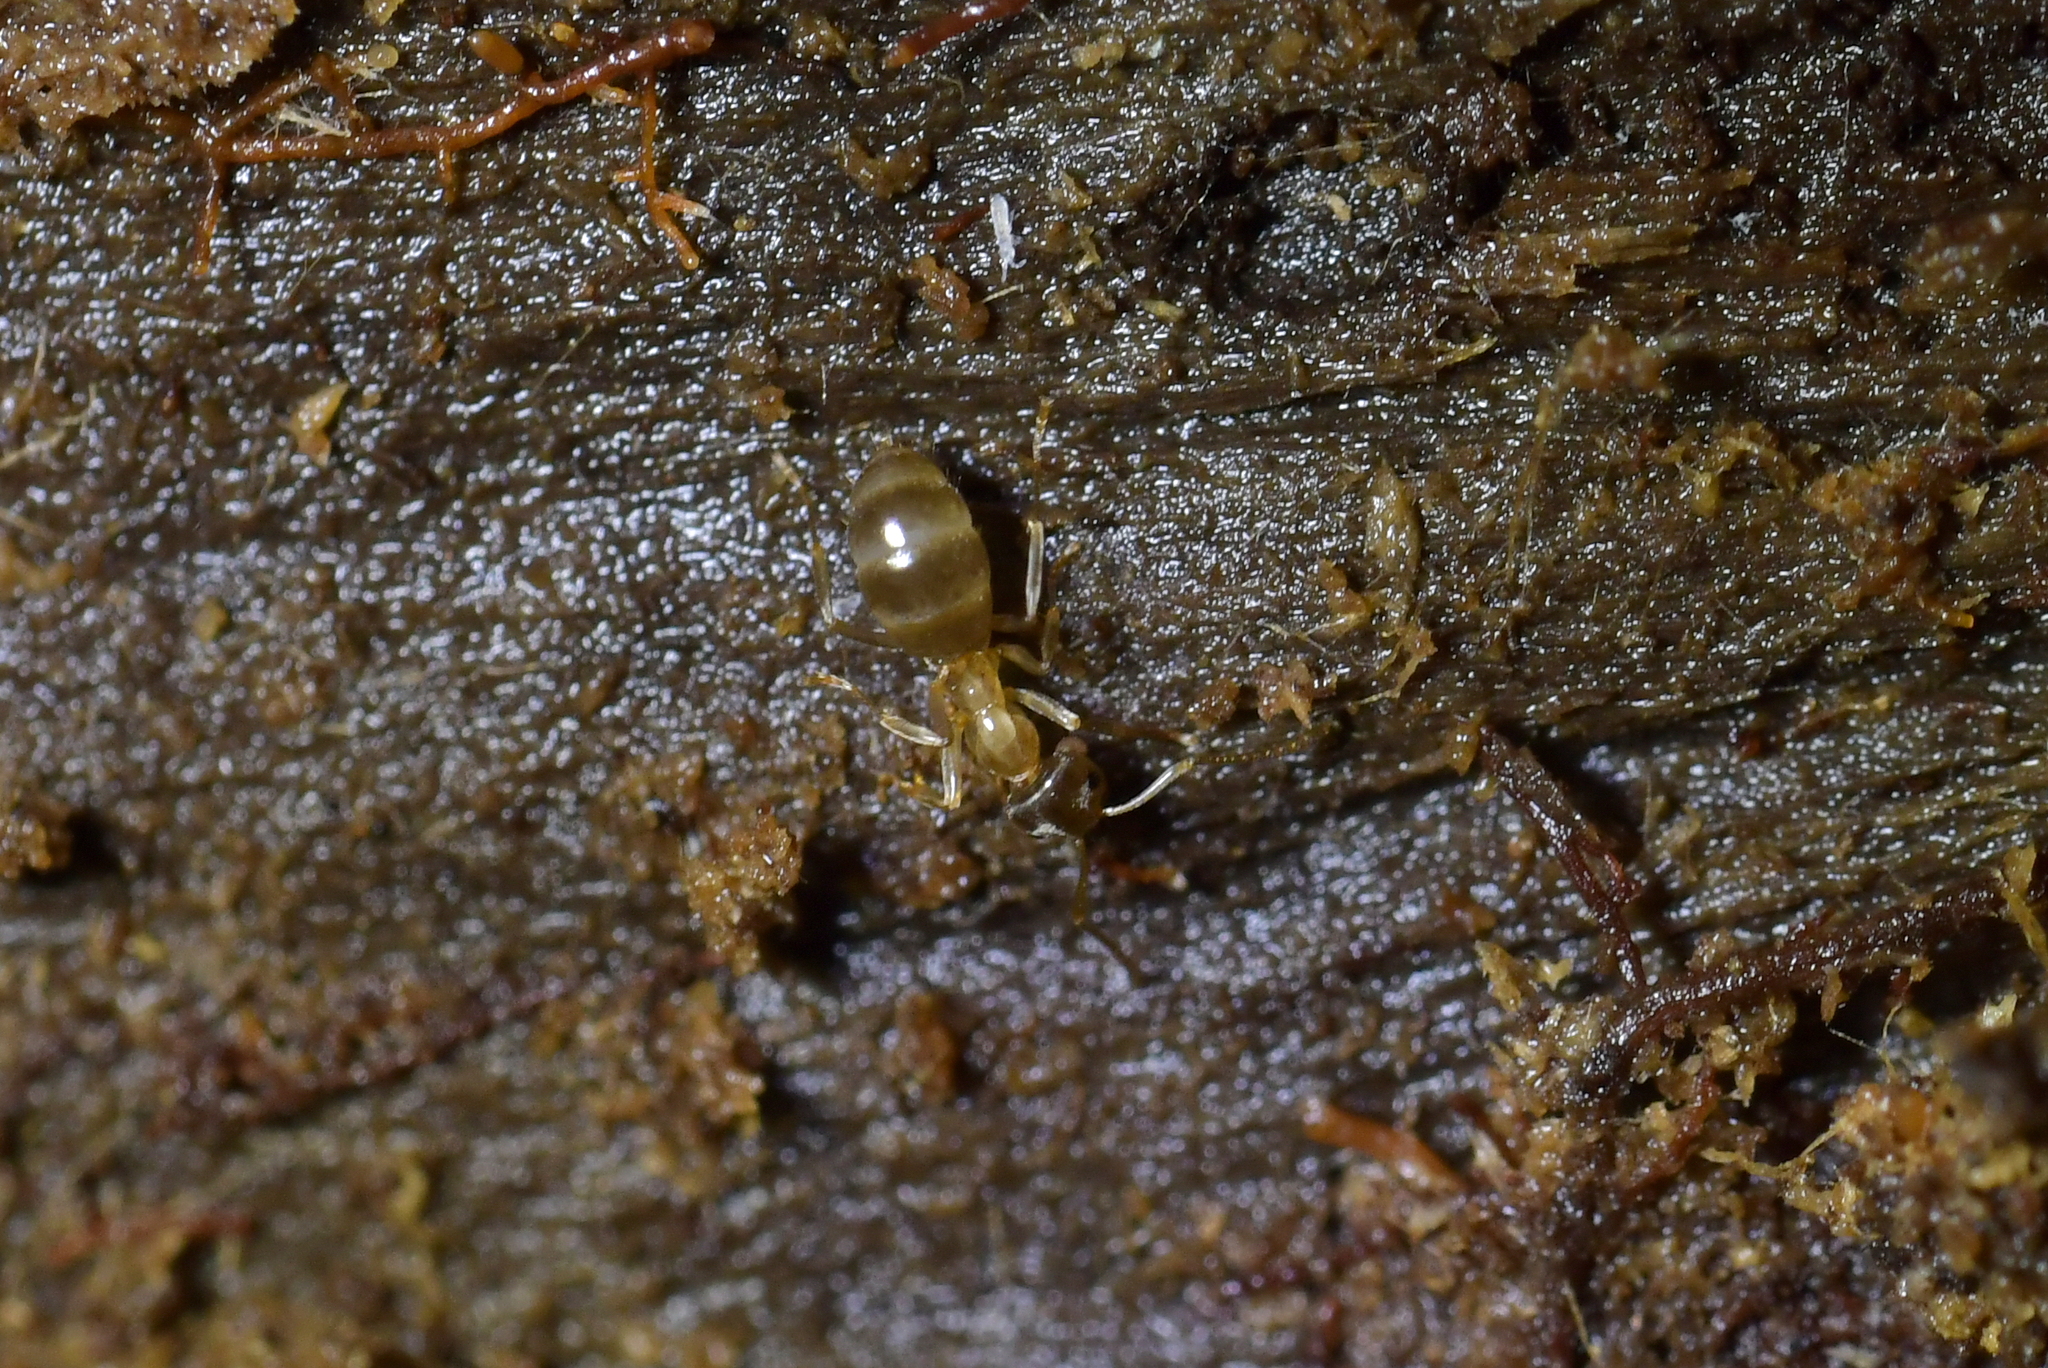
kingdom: Animalia
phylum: Arthropoda
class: Insecta
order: Hymenoptera
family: Formicidae
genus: Prolasius
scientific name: Prolasius advenus
